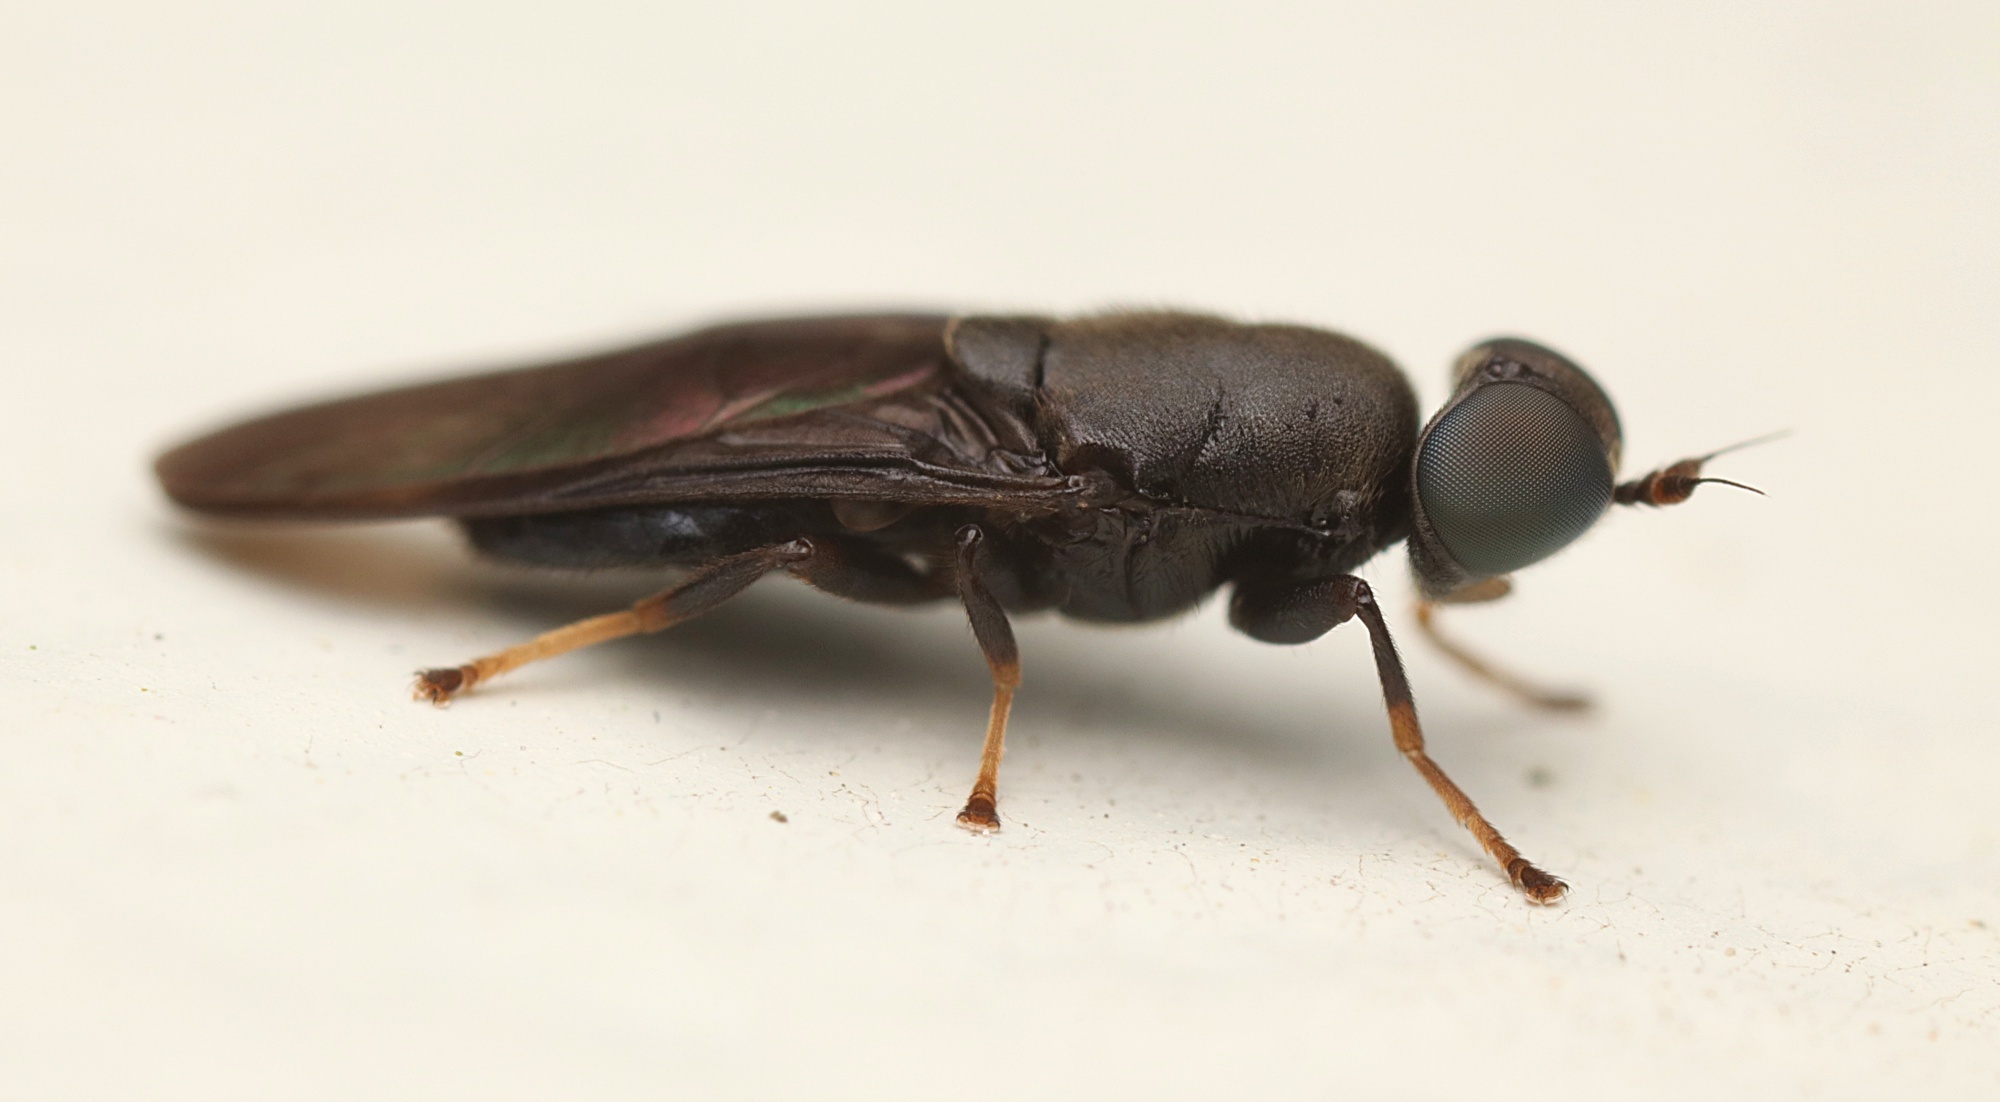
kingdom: Animalia
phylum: Arthropoda
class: Insecta
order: Diptera
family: Stratiomyidae
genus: Dysbiota
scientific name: Dysbiota parvula
